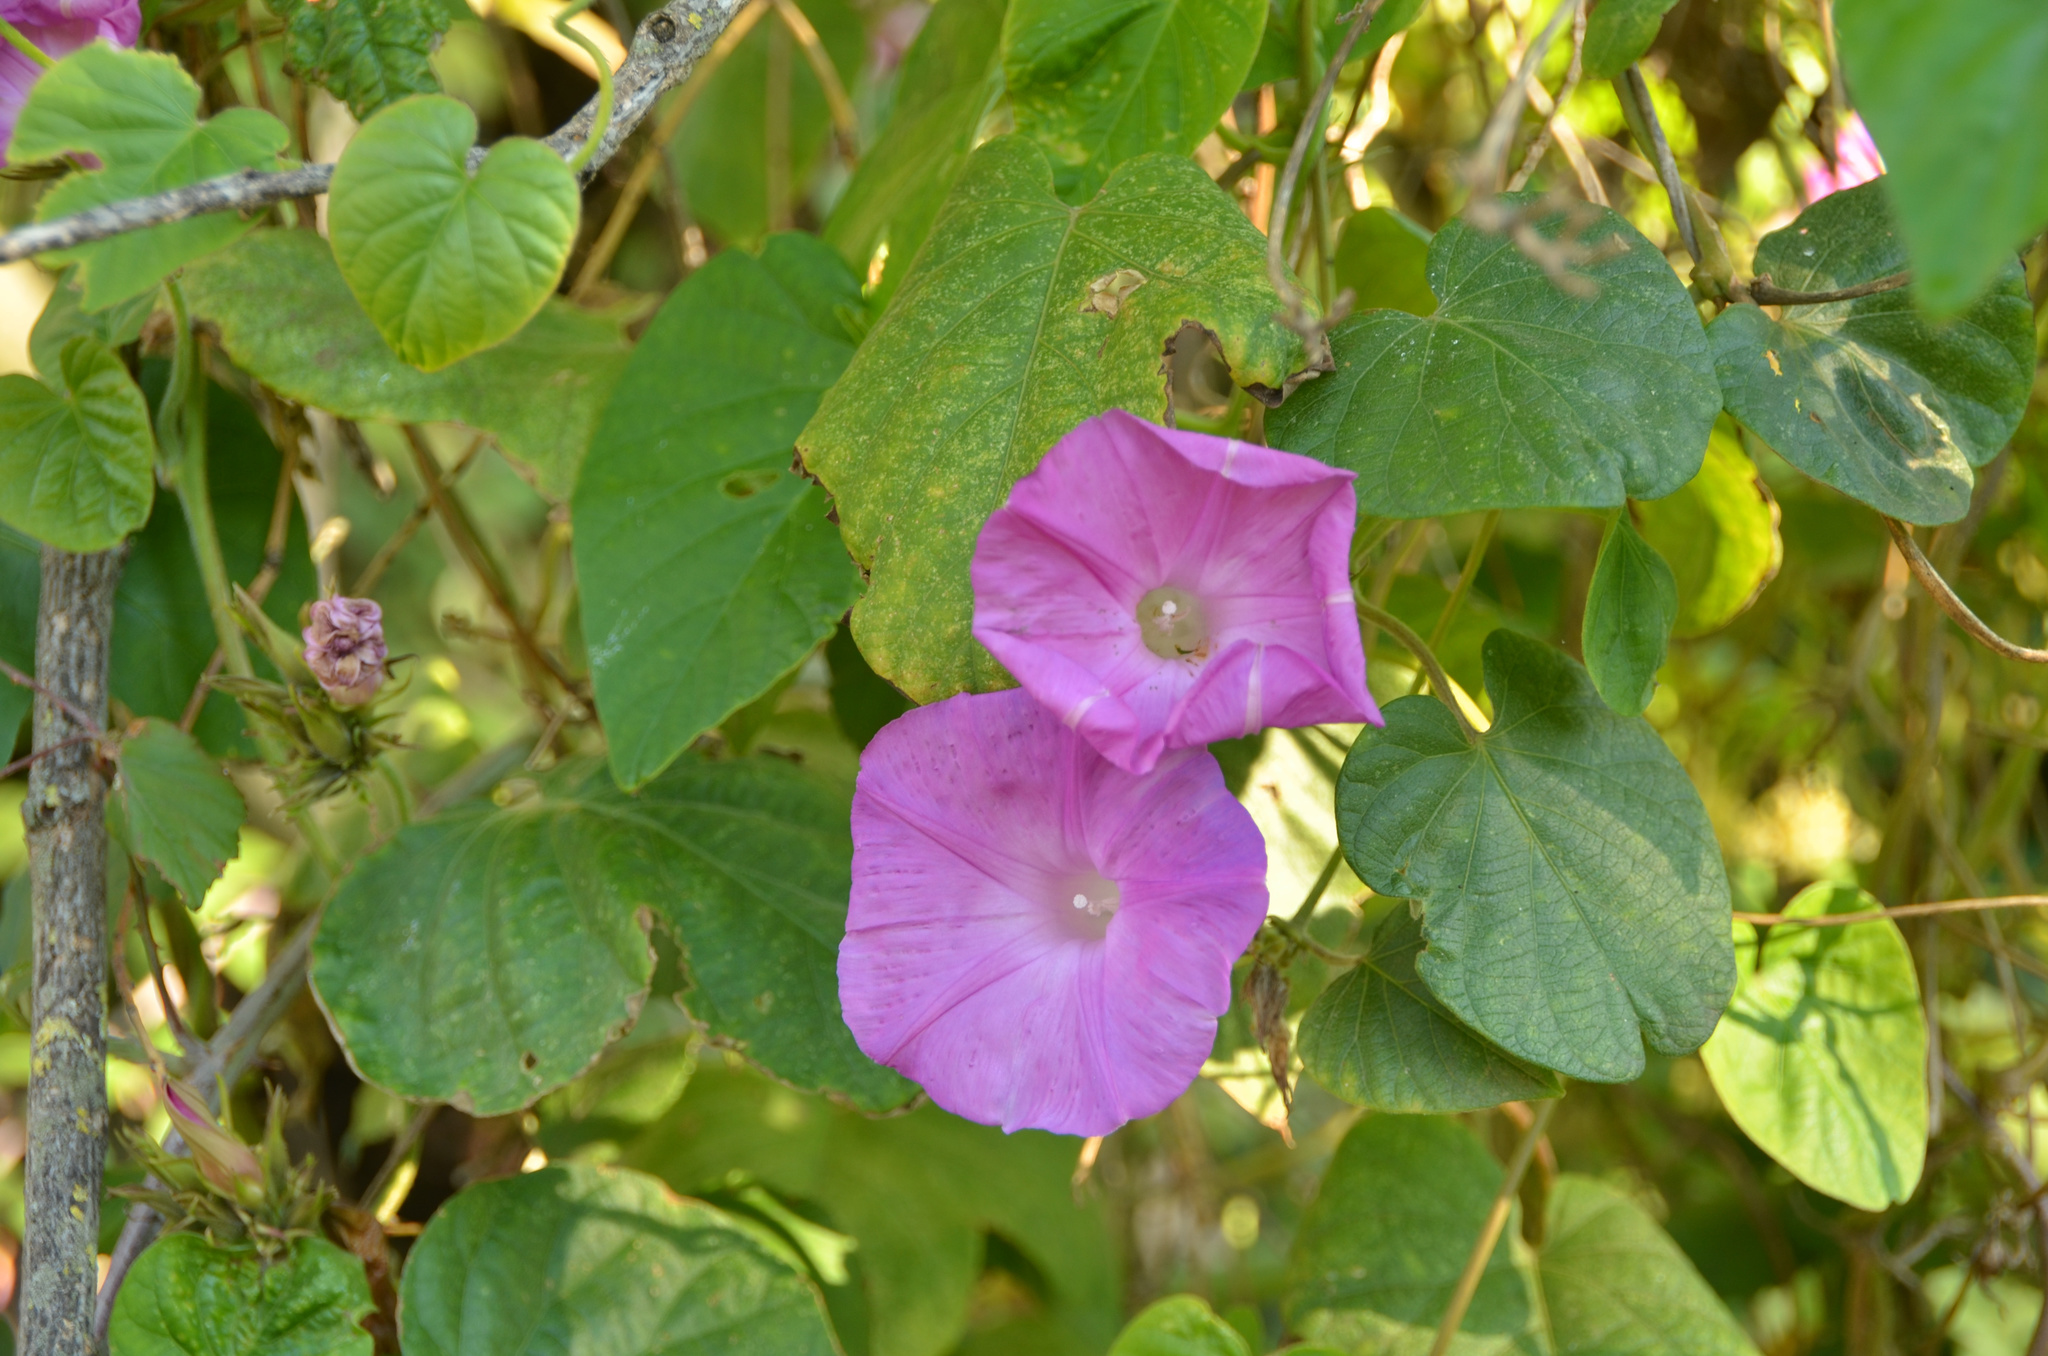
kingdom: Plantae
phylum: Tracheophyta
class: Magnoliopsida
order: Solanales
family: Convolvulaceae
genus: Ipomoea
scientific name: Ipomoea indica
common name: Blue dawnflower
